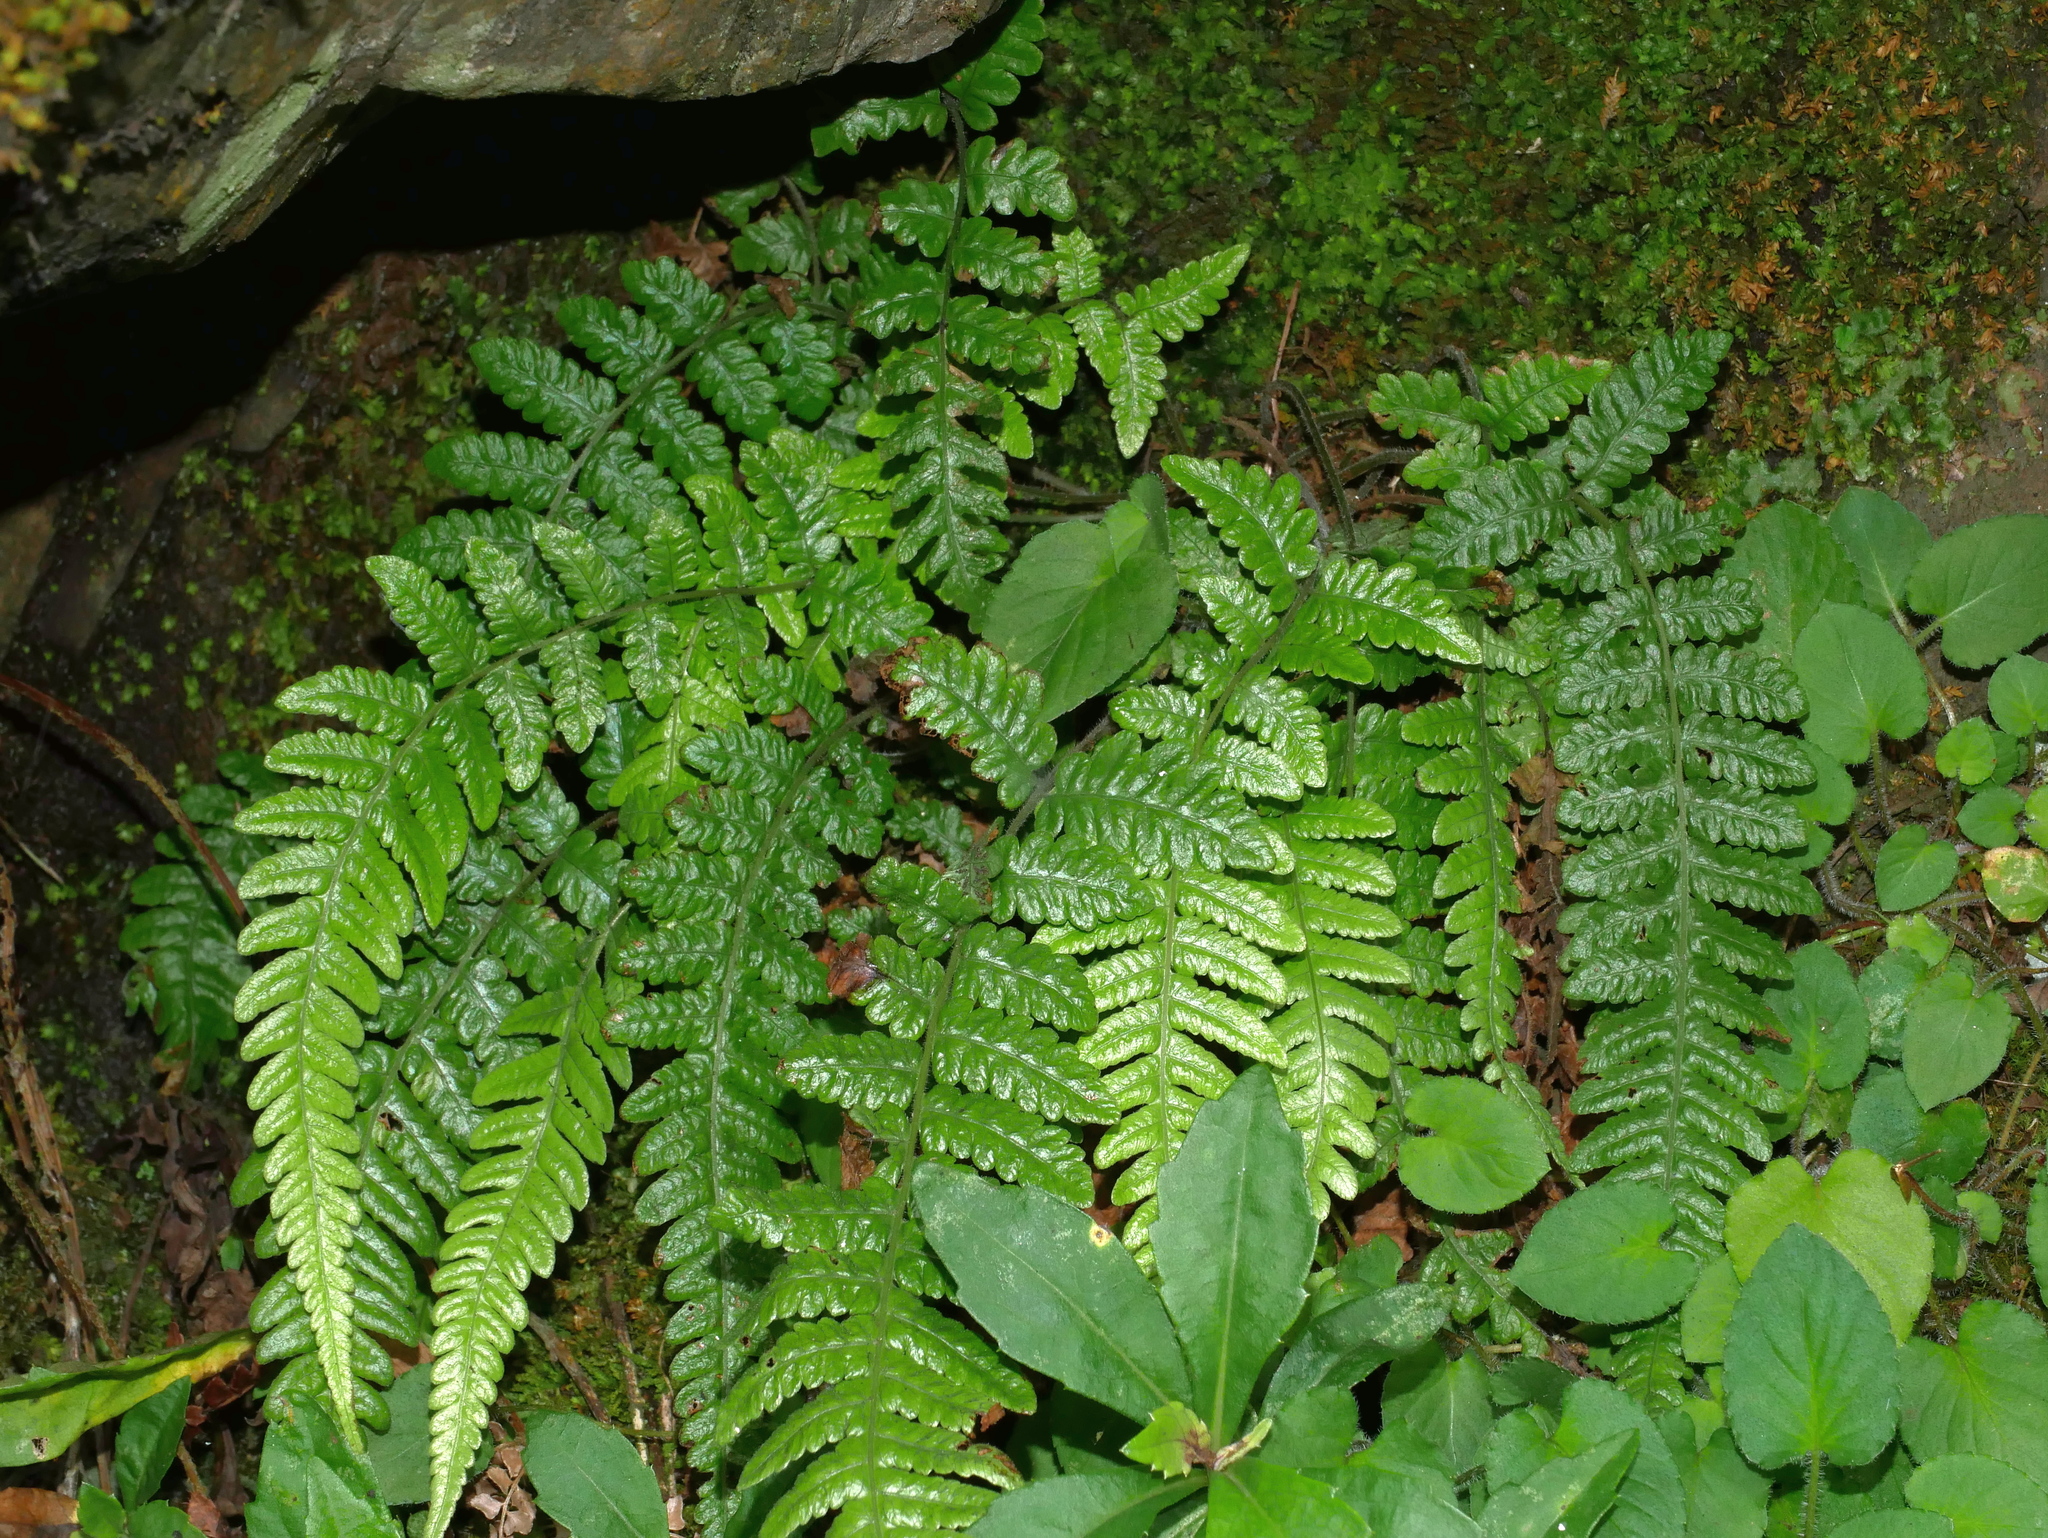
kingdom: Plantae
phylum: Tracheophyta
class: Polypodiopsida
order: Polypodiales
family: Thelypteridaceae
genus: Leptogramma
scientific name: Leptogramma tottoides
